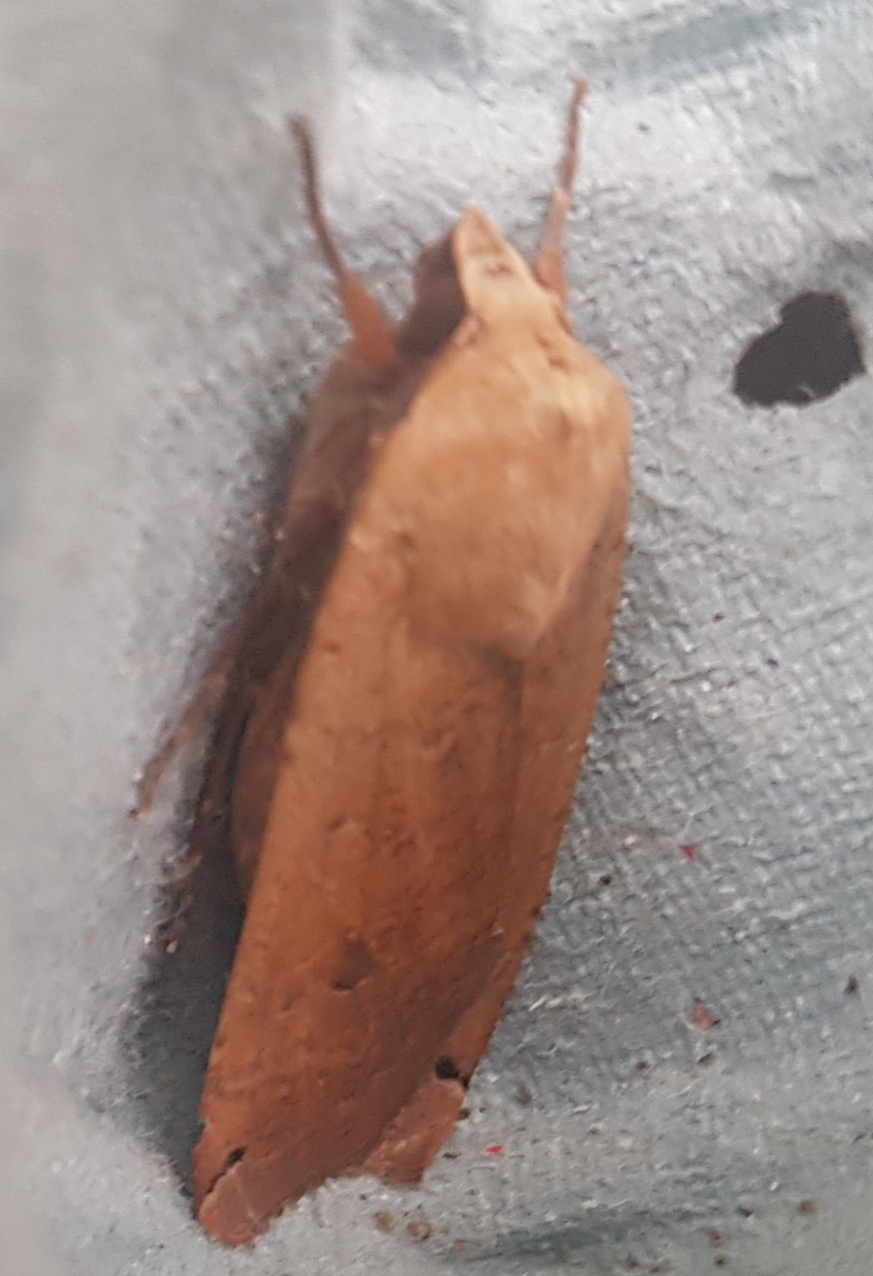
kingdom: Animalia
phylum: Arthropoda
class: Insecta
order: Lepidoptera
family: Noctuidae
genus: Noctua
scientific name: Noctua pronuba
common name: Large yellow underwing
